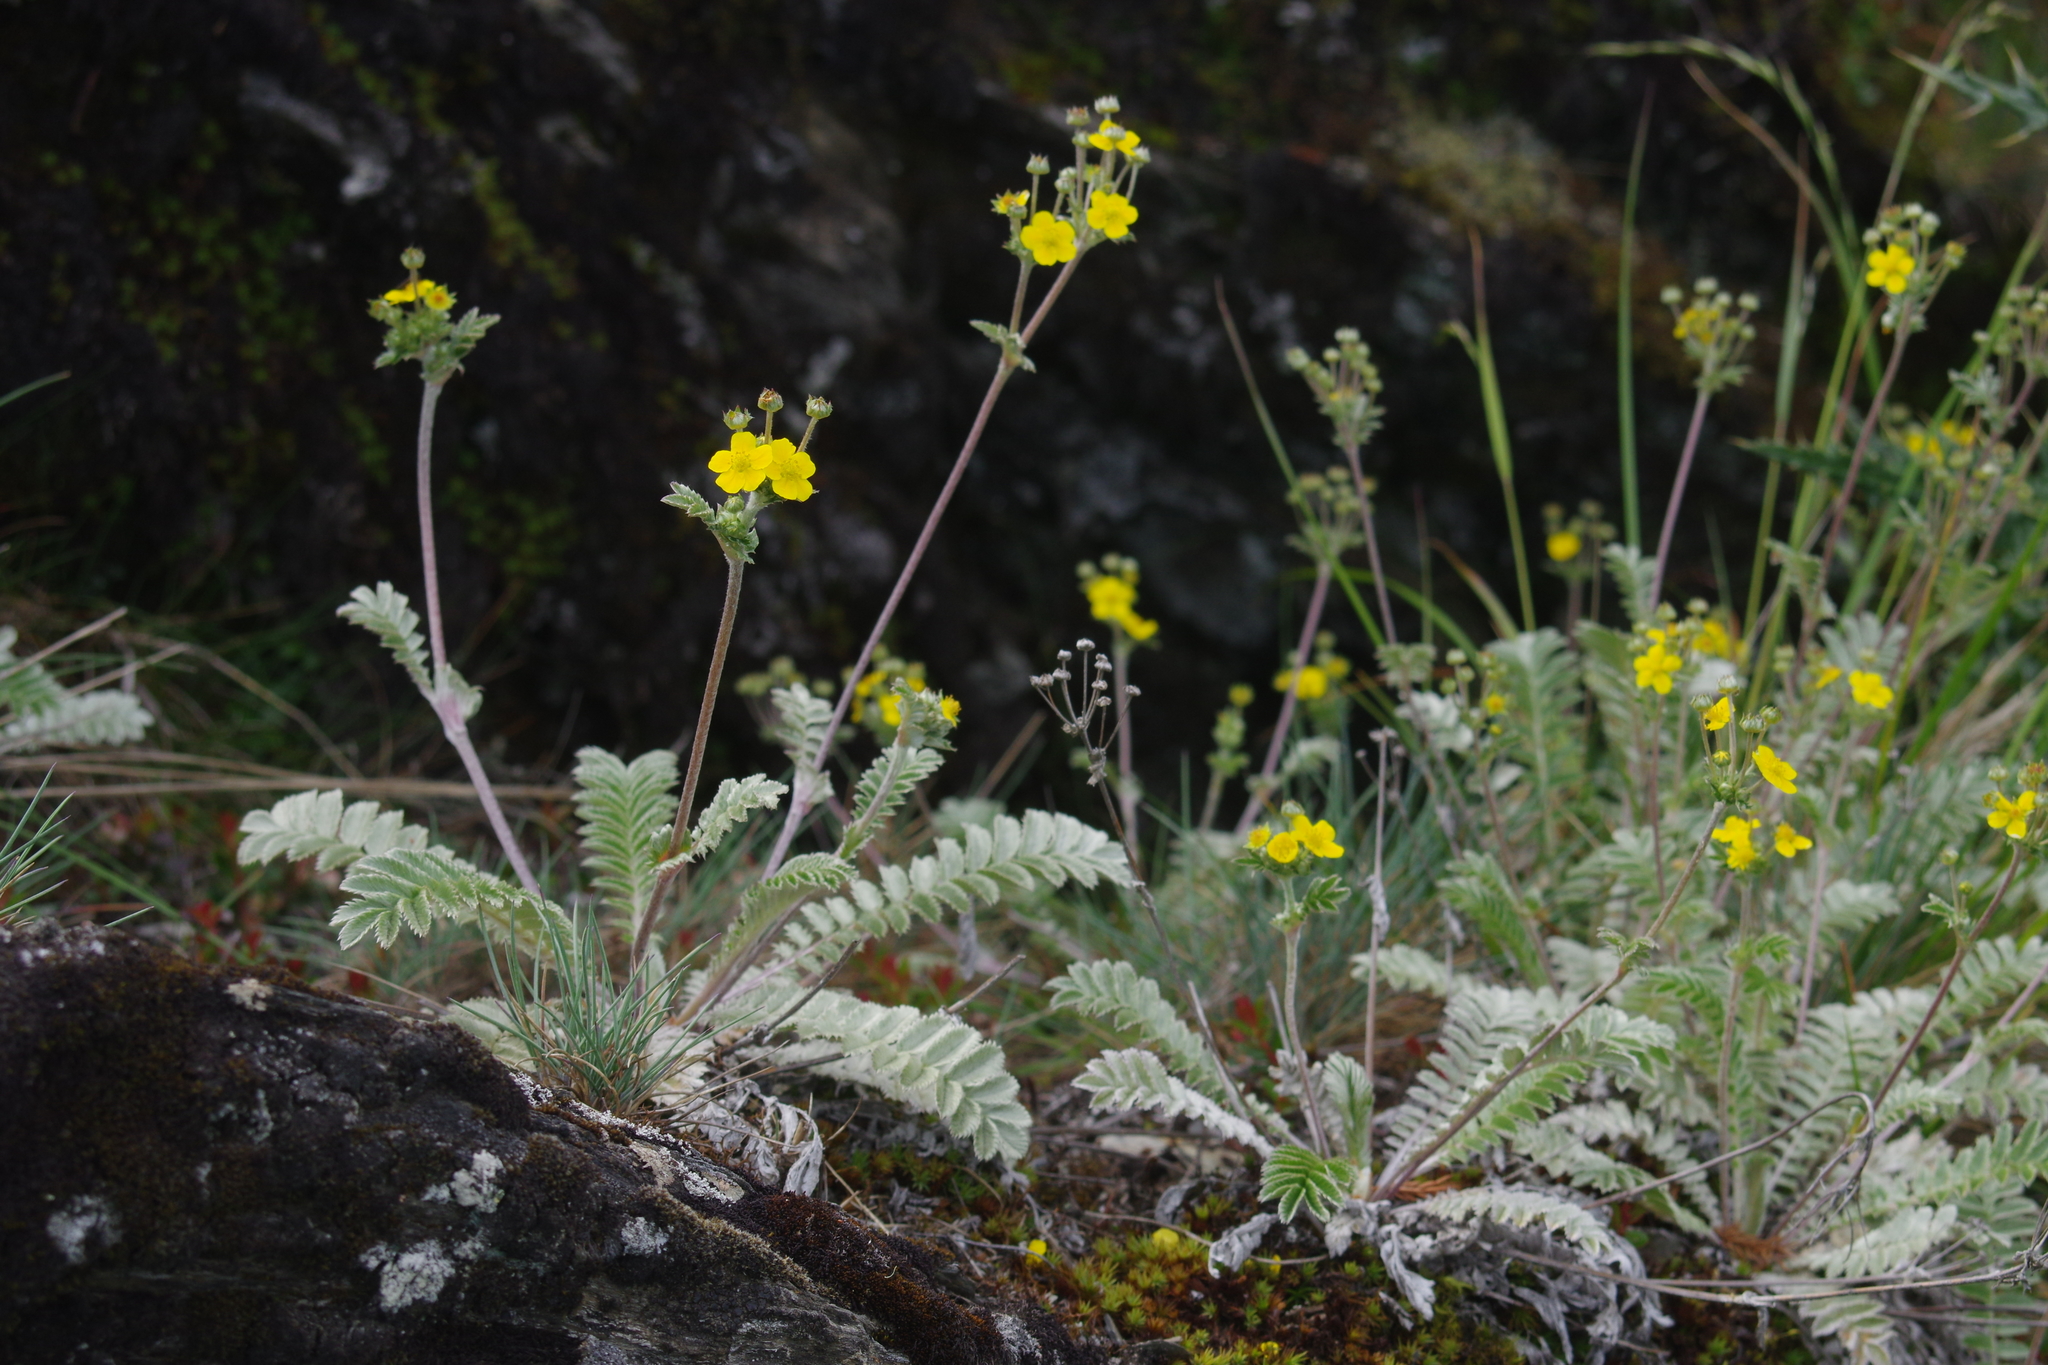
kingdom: Plantae
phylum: Tracheophyta
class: Magnoliopsida
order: Rosales
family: Rosaceae
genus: Argentina
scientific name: Argentina leuconota
